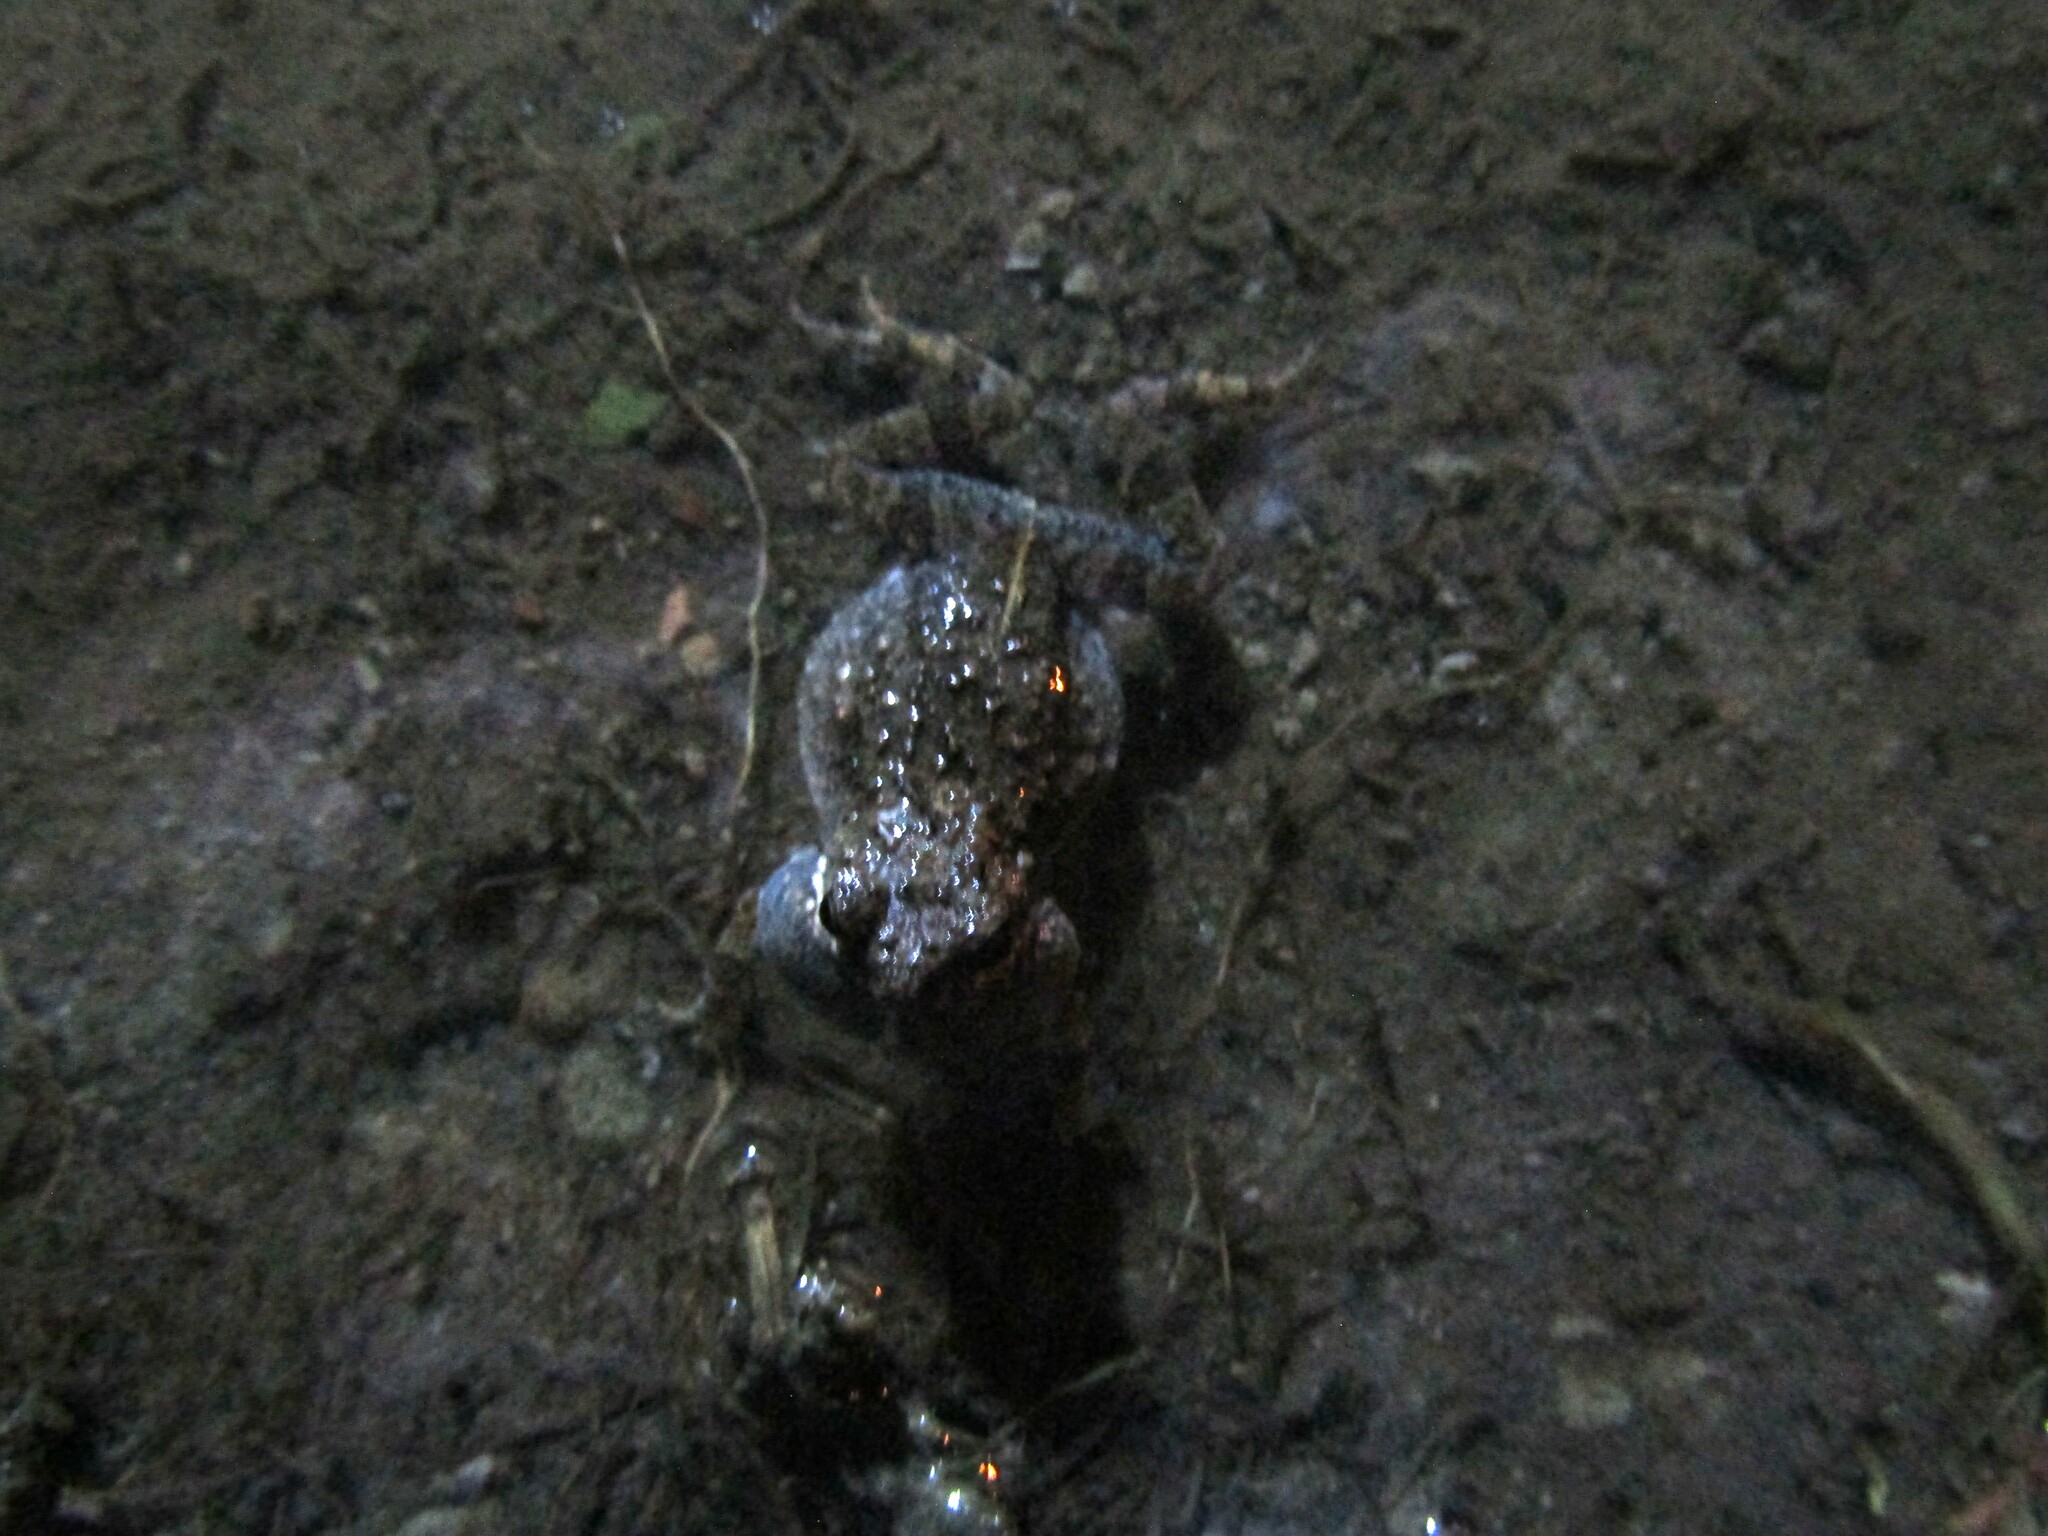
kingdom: Animalia
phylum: Chordata
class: Amphibia
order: Anura
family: Leptodactylidae
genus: Engystomops
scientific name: Engystomops pustulosus
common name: Tungara frog
